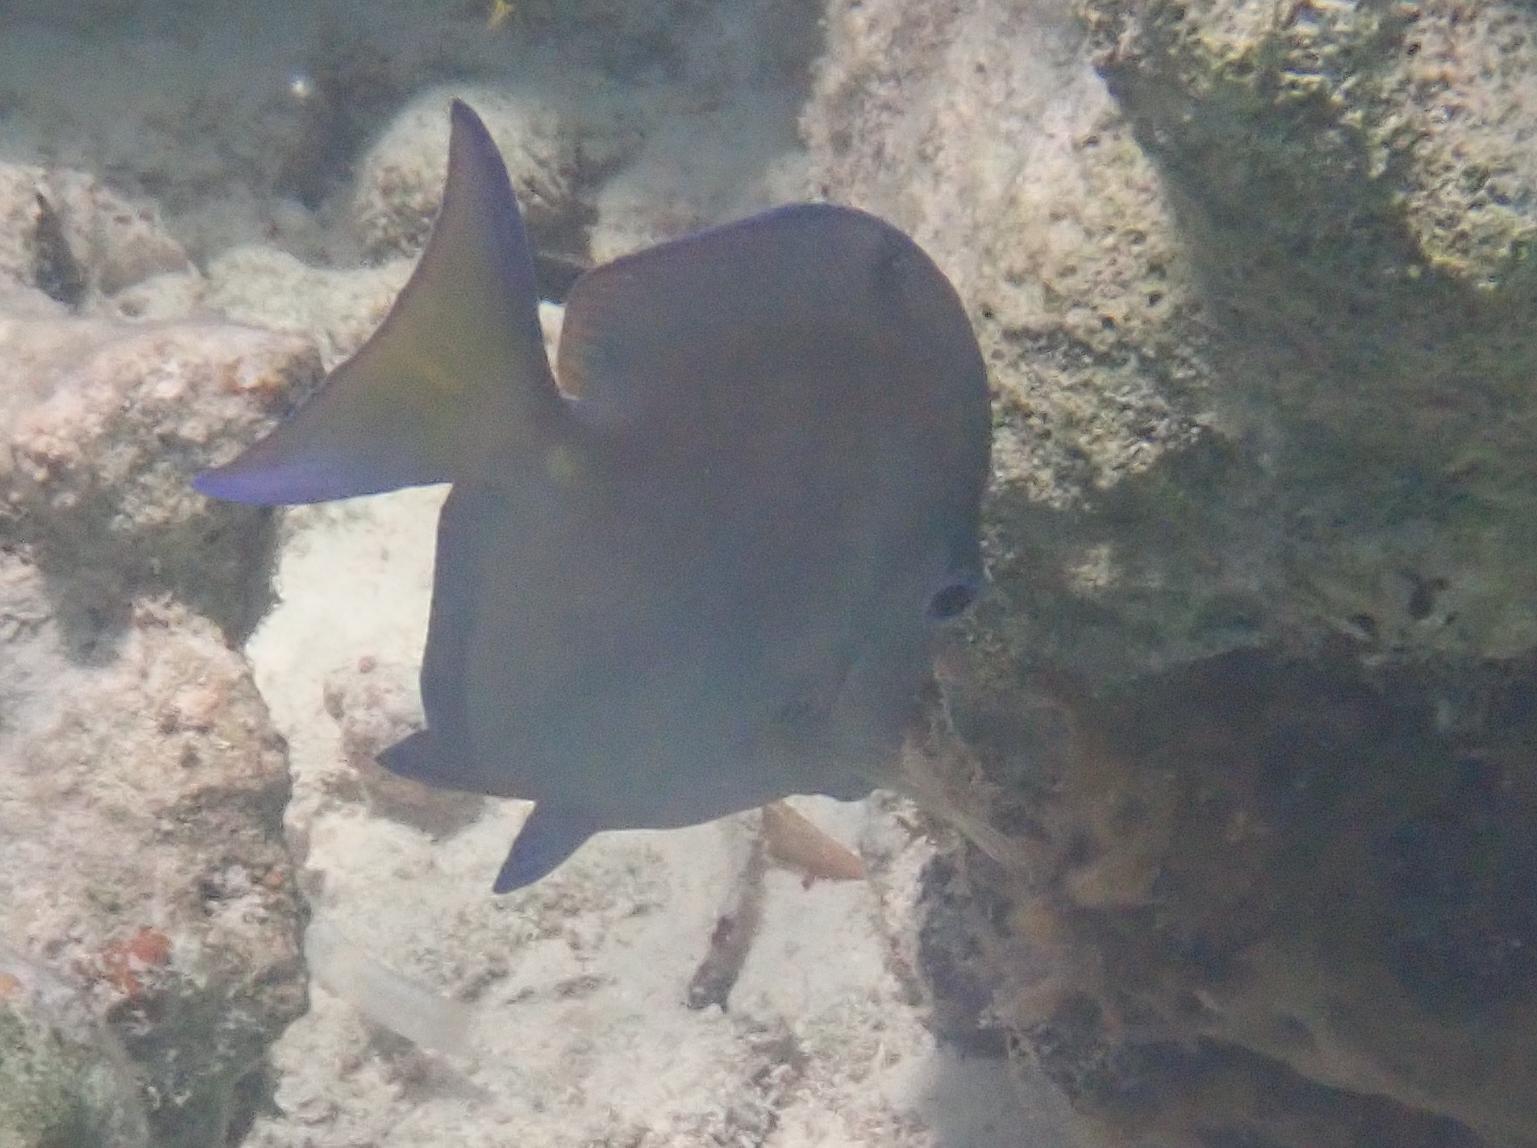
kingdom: Animalia
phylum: Chordata
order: Perciformes
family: Acanthuridae
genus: Acanthurus
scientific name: Acanthurus coeruleus
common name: Blue tang
